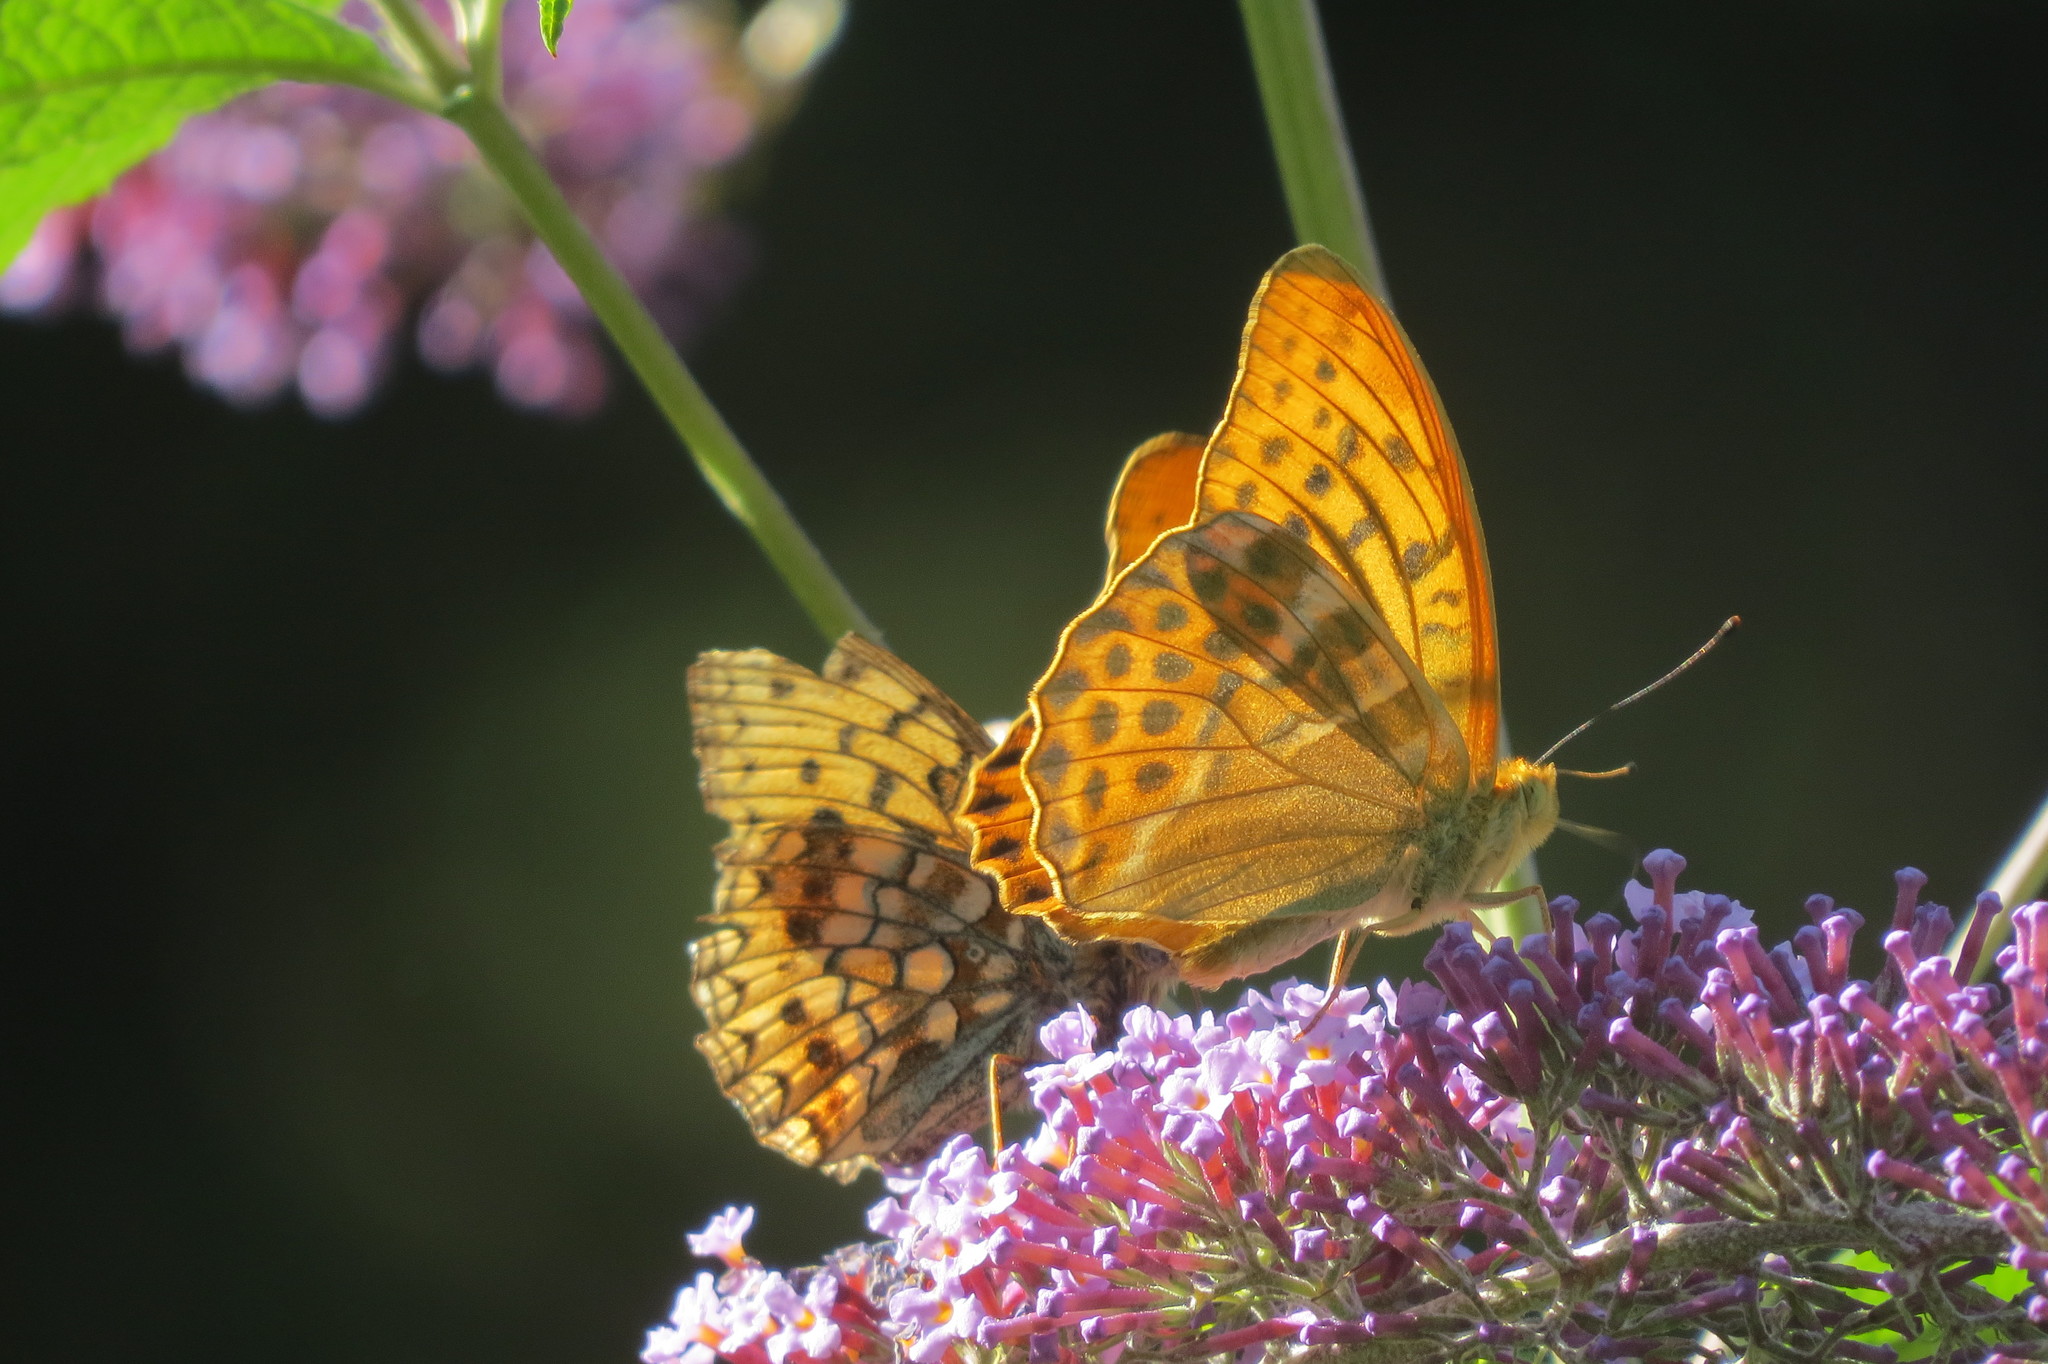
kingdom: Animalia
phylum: Arthropoda
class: Insecta
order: Lepidoptera
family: Nymphalidae
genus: Argynnis
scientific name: Argynnis paphia
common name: Silver-washed fritillary
